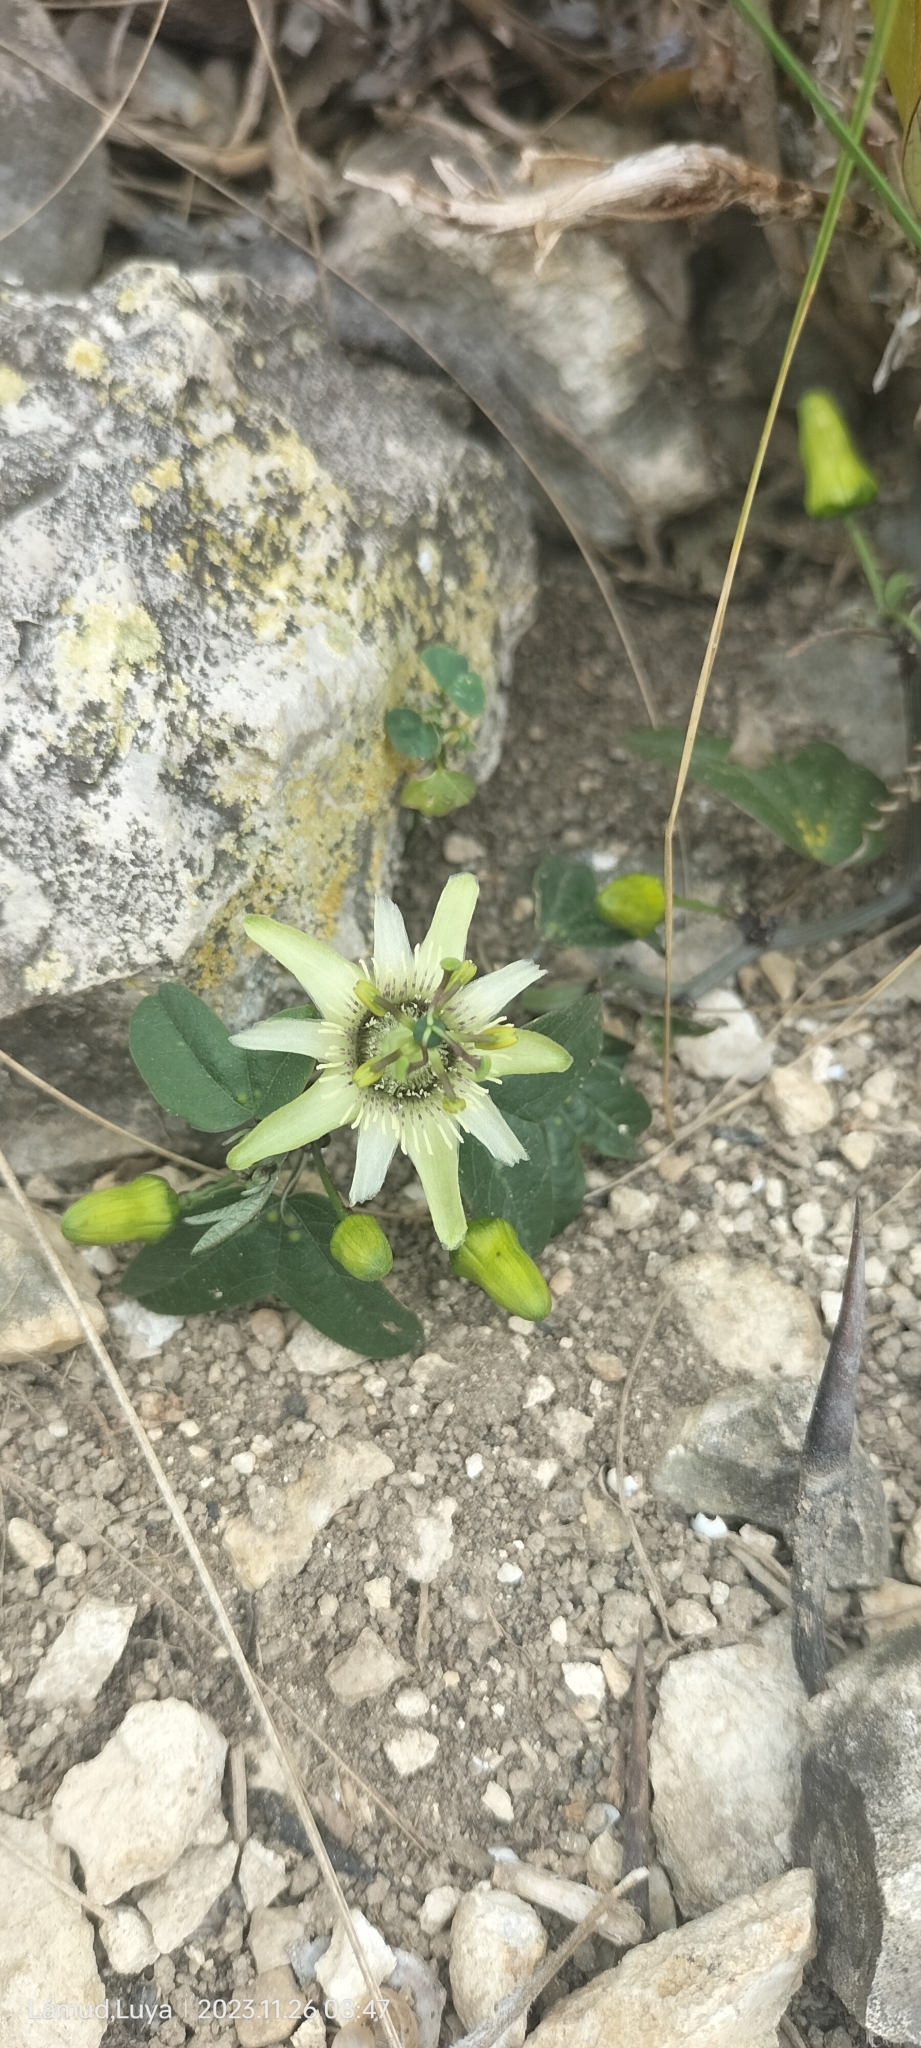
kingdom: Plantae
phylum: Tracheophyta
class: Magnoliopsida
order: Malpighiales
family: Passifloraceae
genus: Passiflora
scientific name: Passiflora ketura
